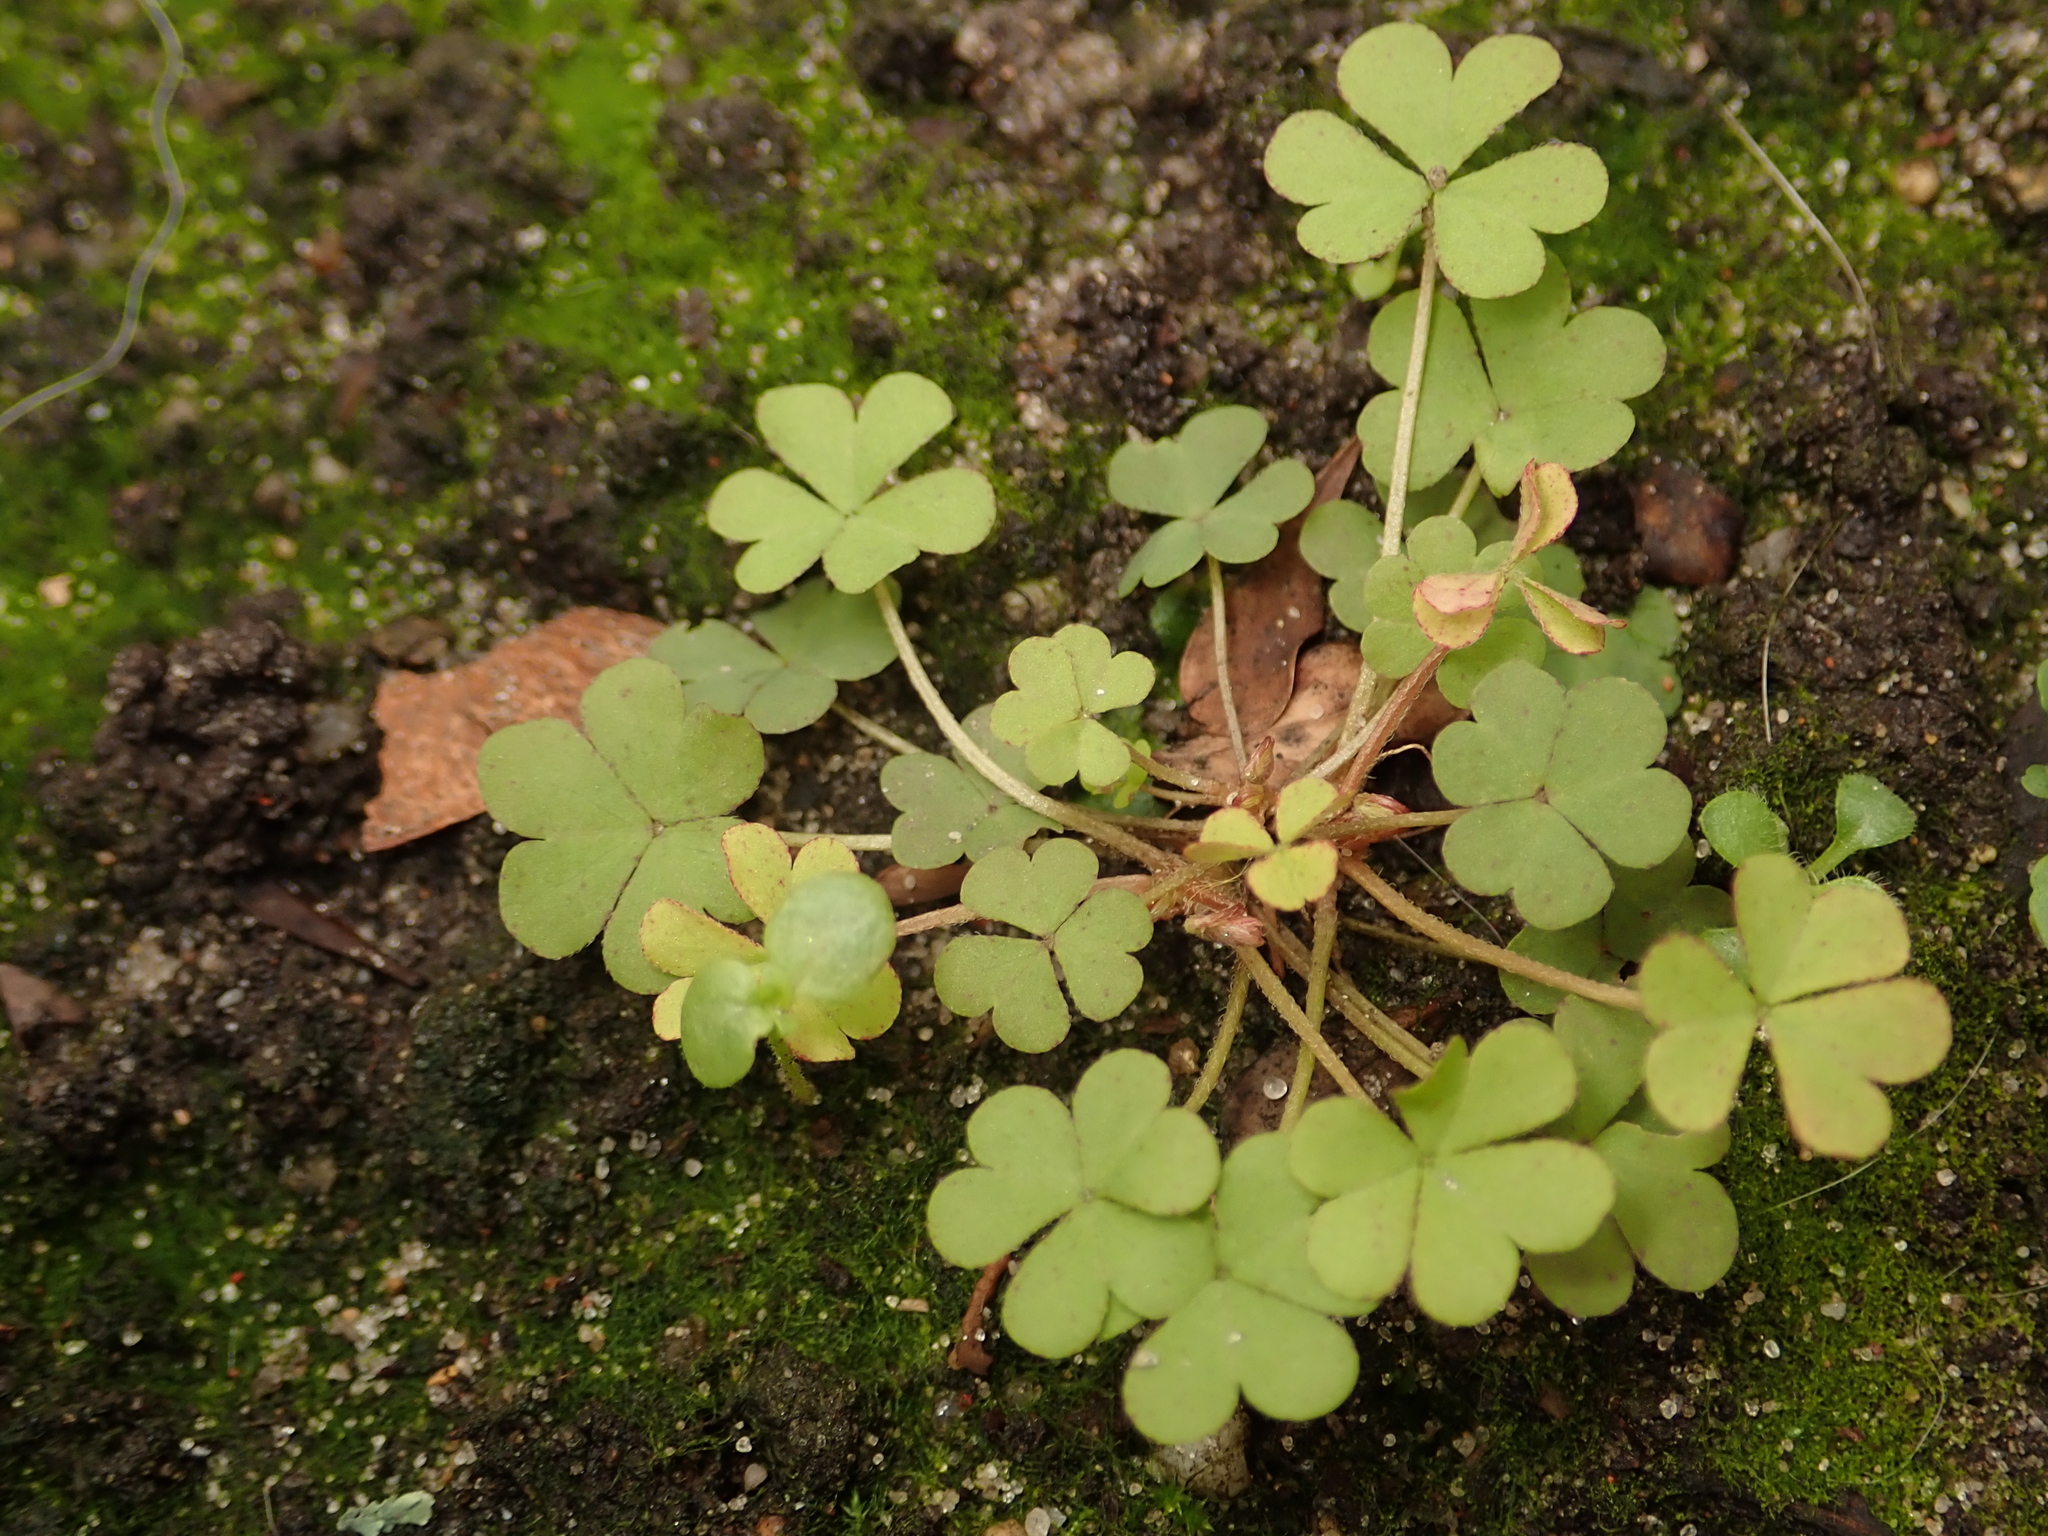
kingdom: Plantae
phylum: Tracheophyta
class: Magnoliopsida
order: Oxalidales
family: Oxalidaceae
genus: Oxalis
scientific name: Oxalis corniculata
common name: Procumbent yellow-sorrel
